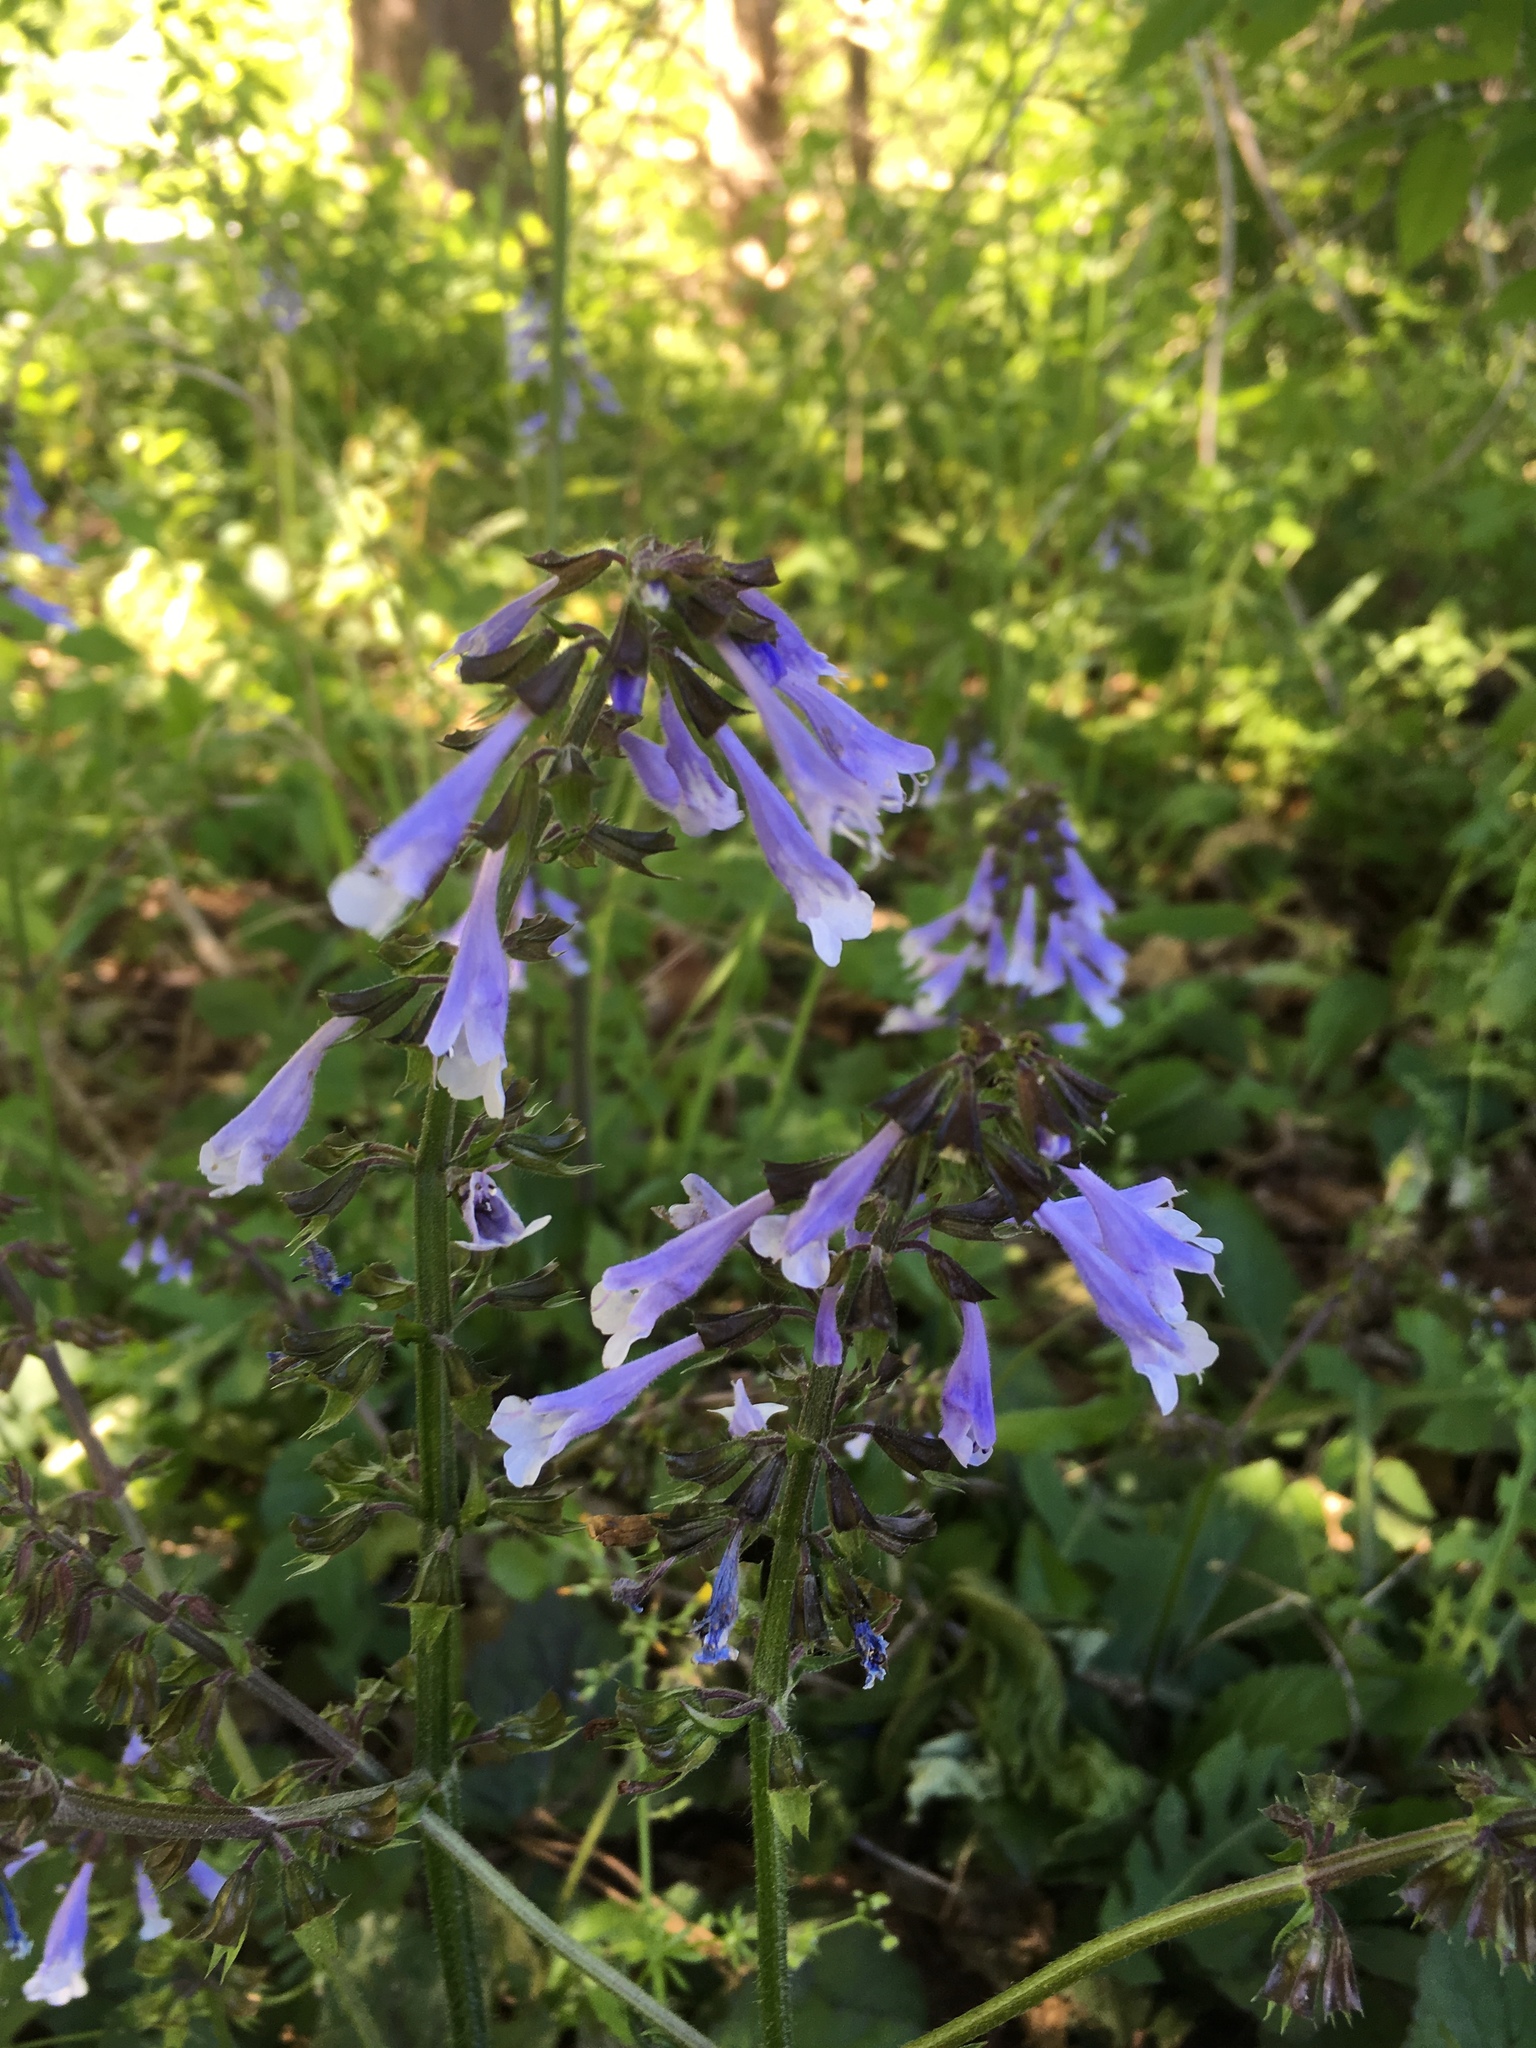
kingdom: Plantae
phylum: Tracheophyta
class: Magnoliopsida
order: Lamiales
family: Lamiaceae
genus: Salvia
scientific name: Salvia lyrata
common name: Cancerweed
